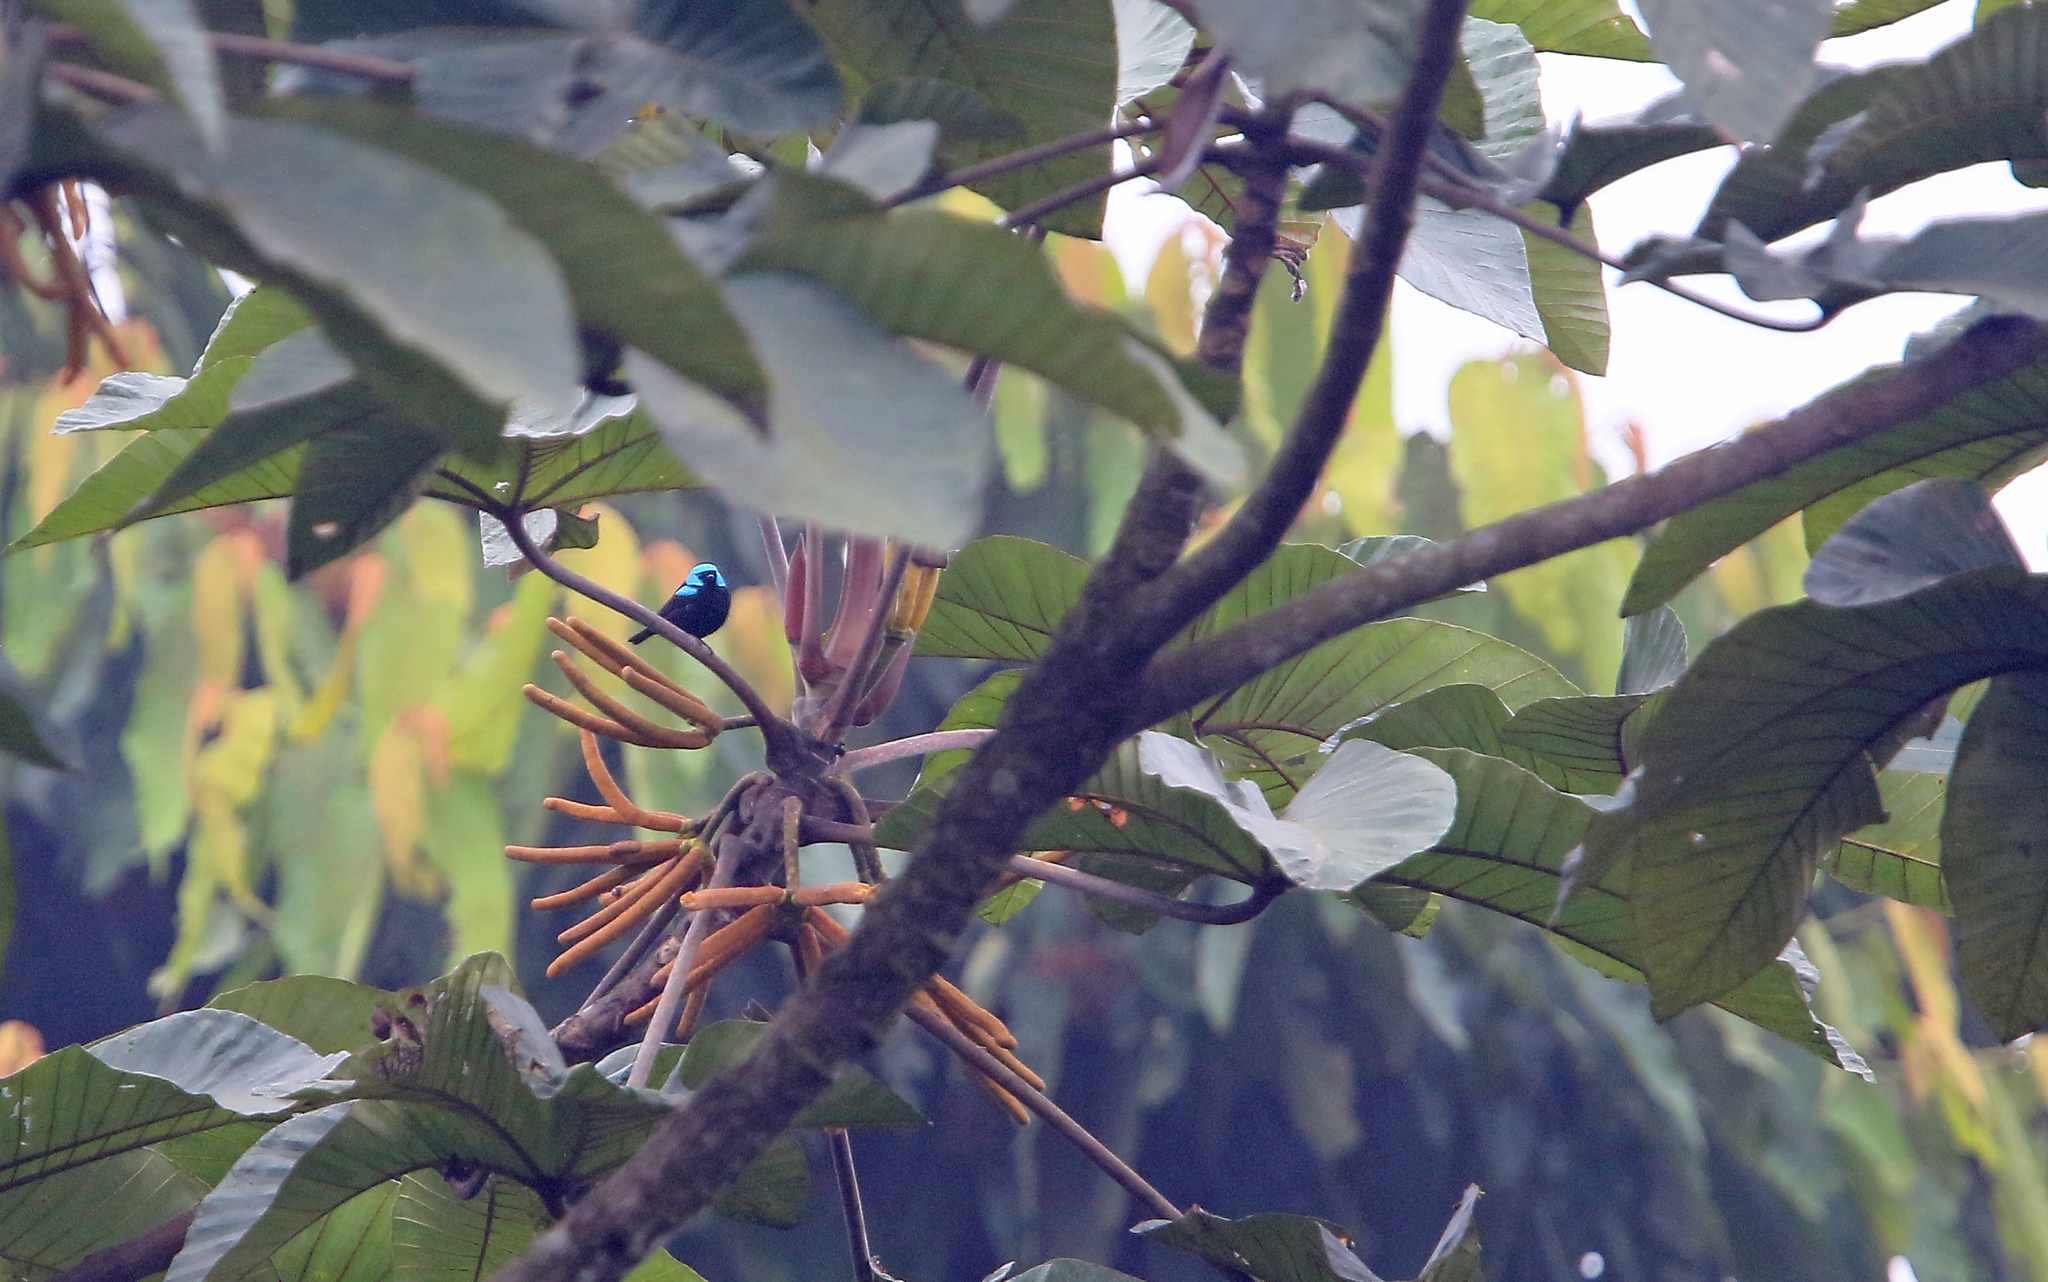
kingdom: Animalia
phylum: Chordata
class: Aves
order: Passeriformes
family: Thraupidae
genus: Dacnis
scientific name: Dacnis venusta
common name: Scarlet-thighed dacnis
